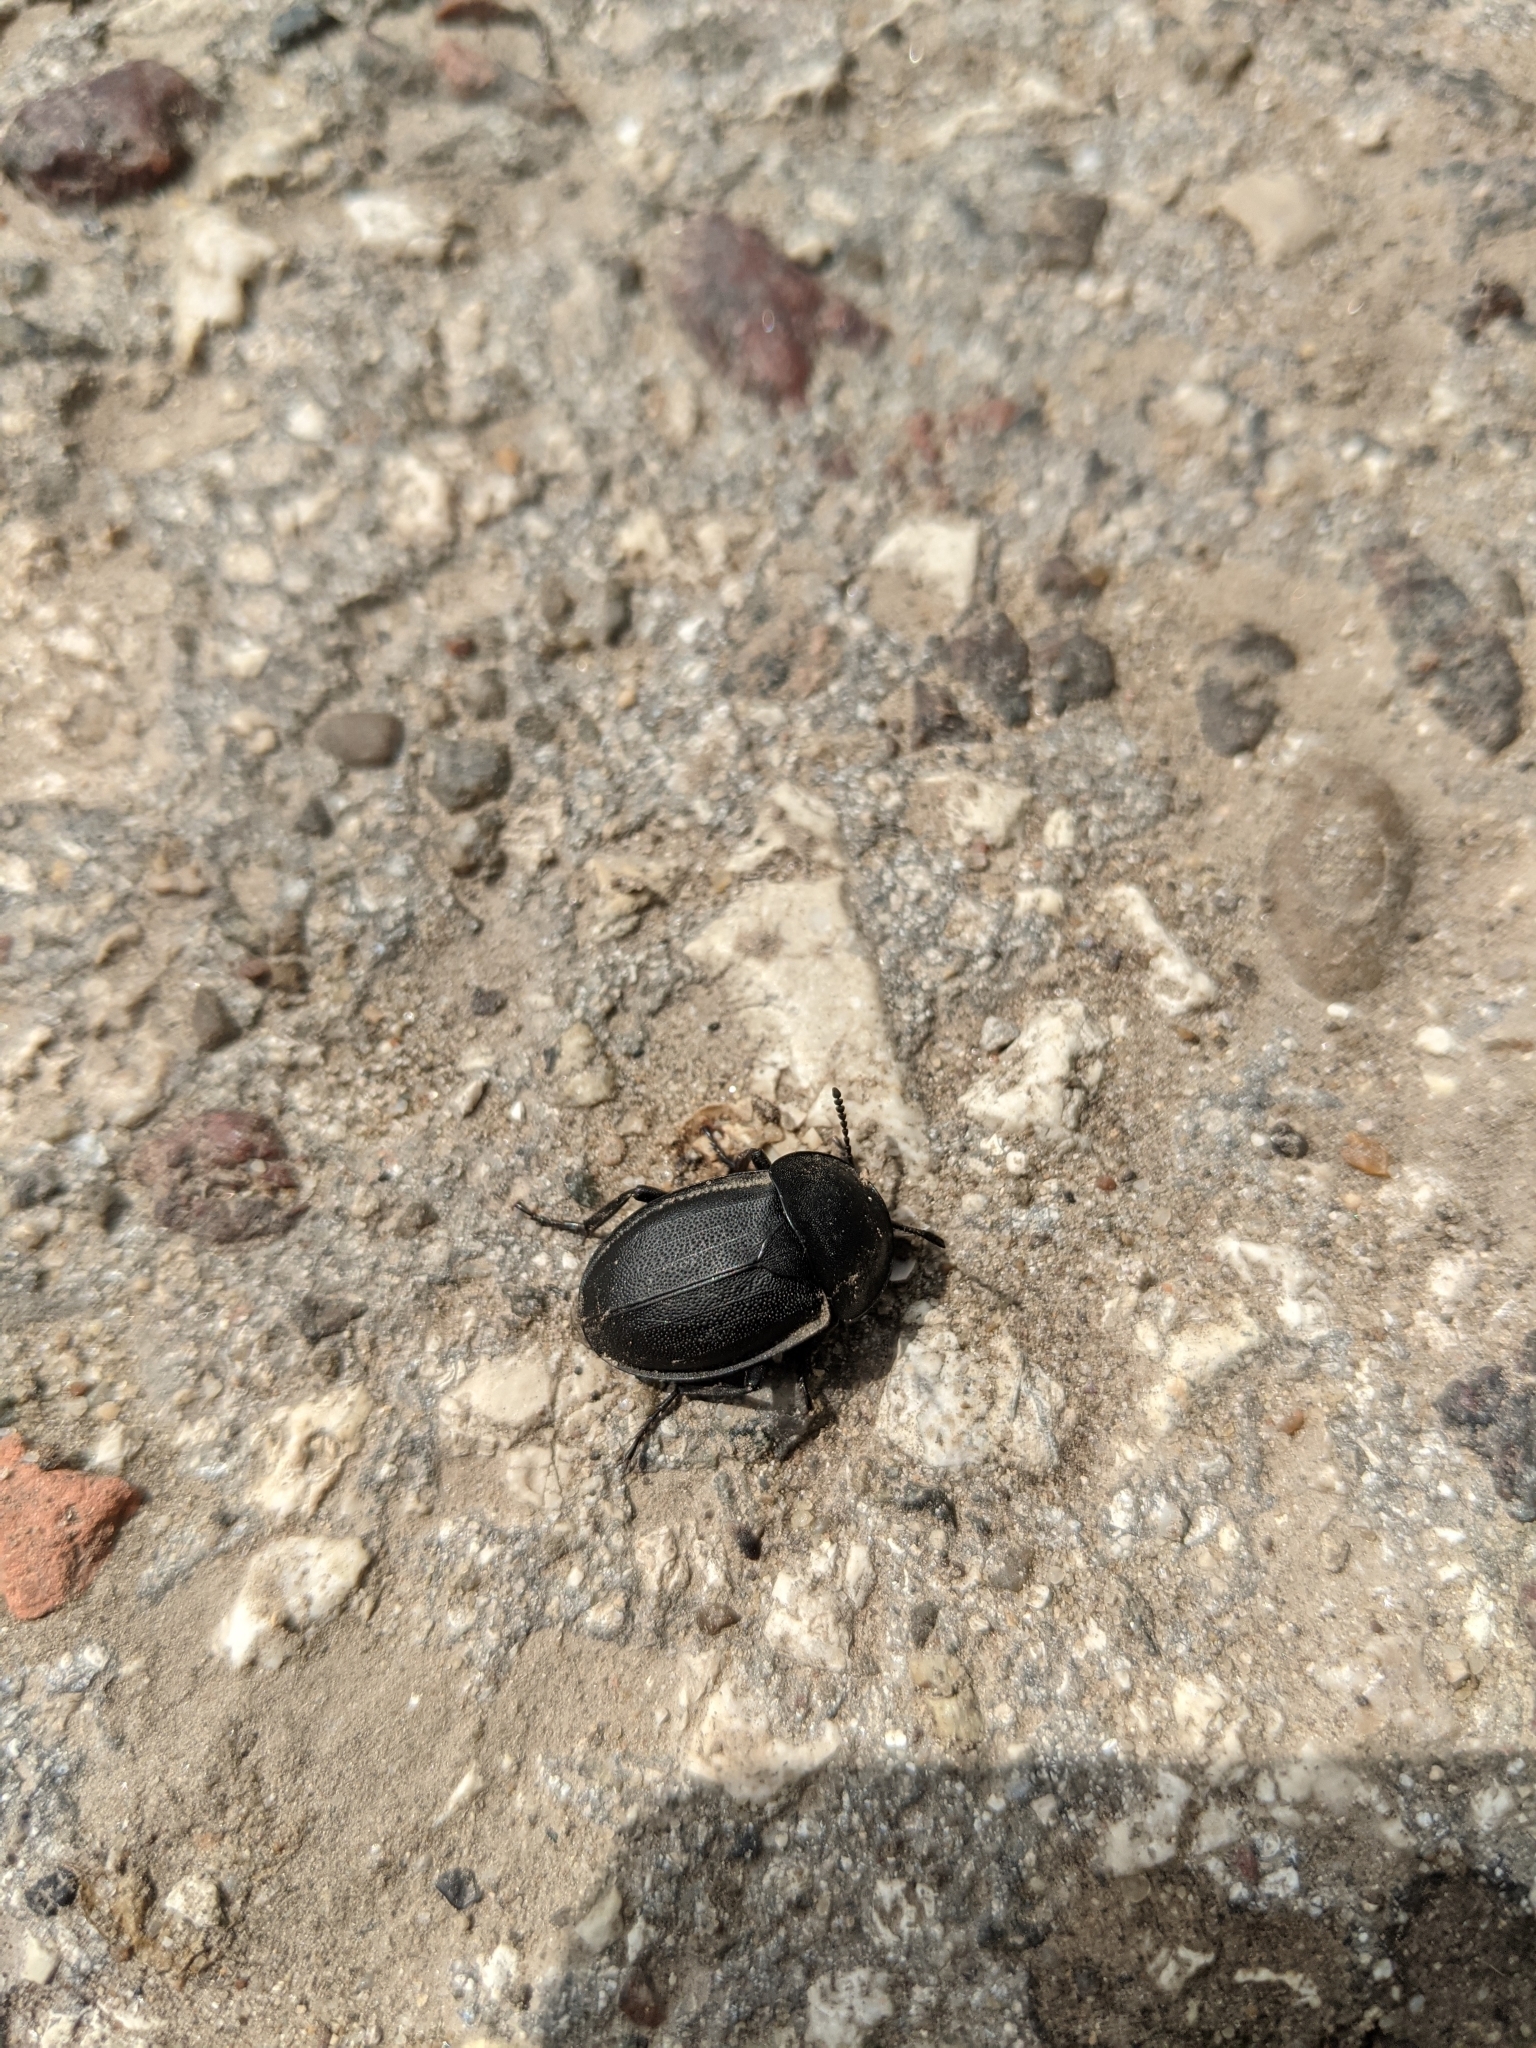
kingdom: Animalia
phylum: Arthropoda
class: Insecta
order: Coleoptera
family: Staphylinidae
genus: Silpha
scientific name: Silpha obscura
